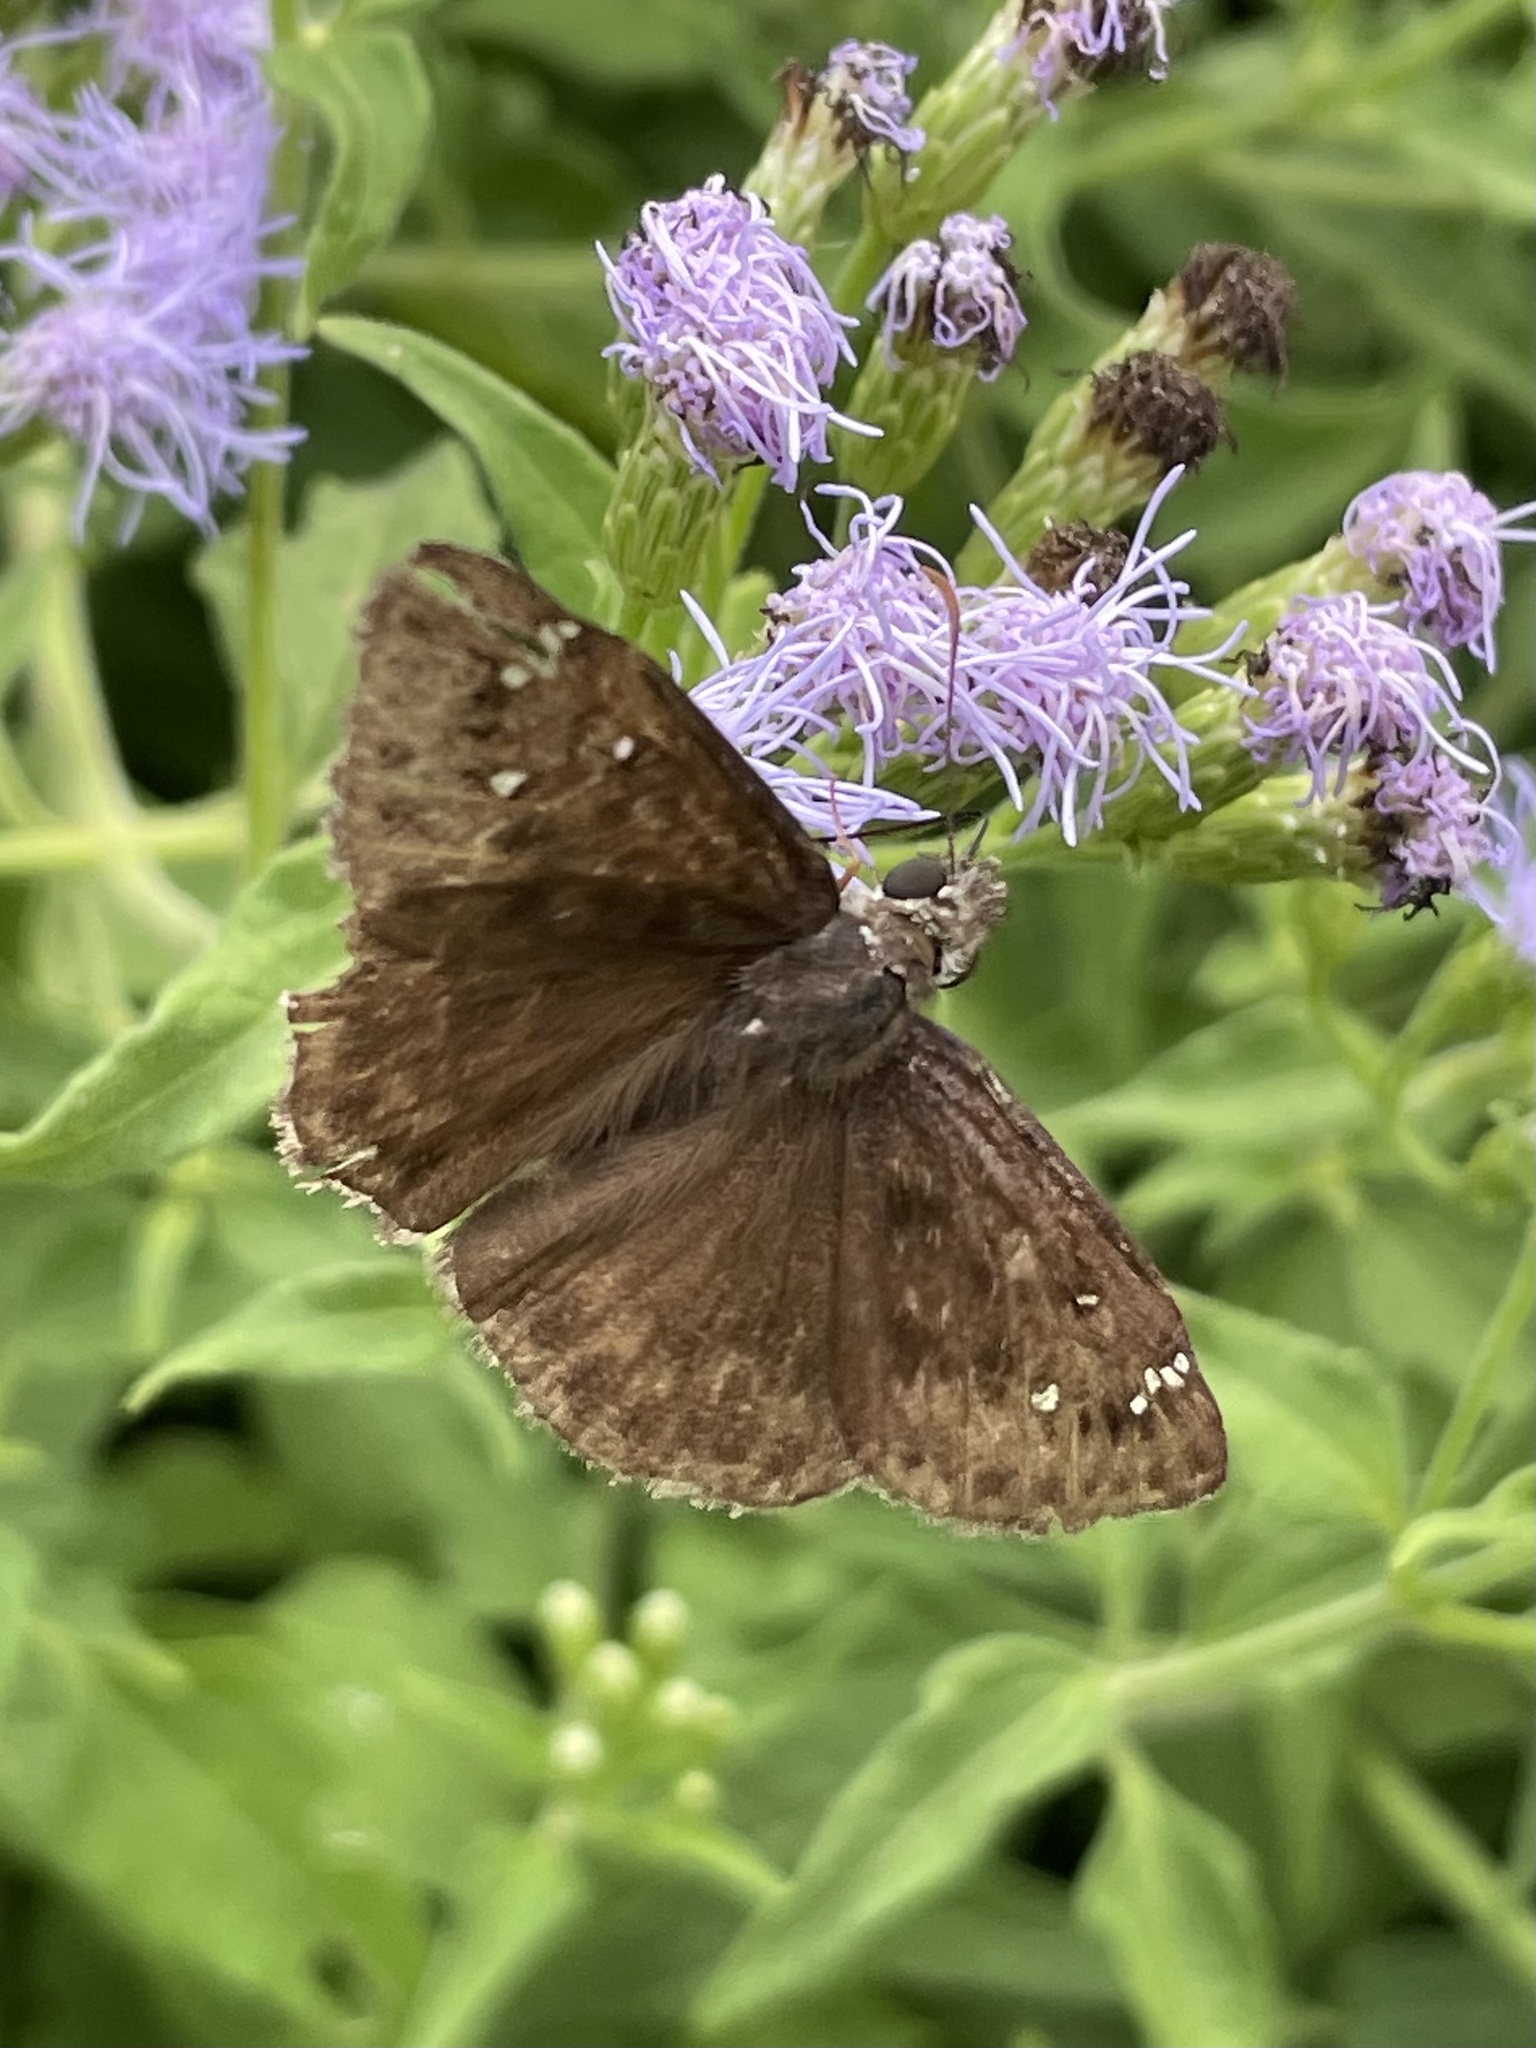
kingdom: Animalia
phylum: Arthropoda
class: Insecta
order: Lepidoptera
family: Hesperiidae
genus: Erynnis
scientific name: Erynnis horatius
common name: Horace's duskywing
